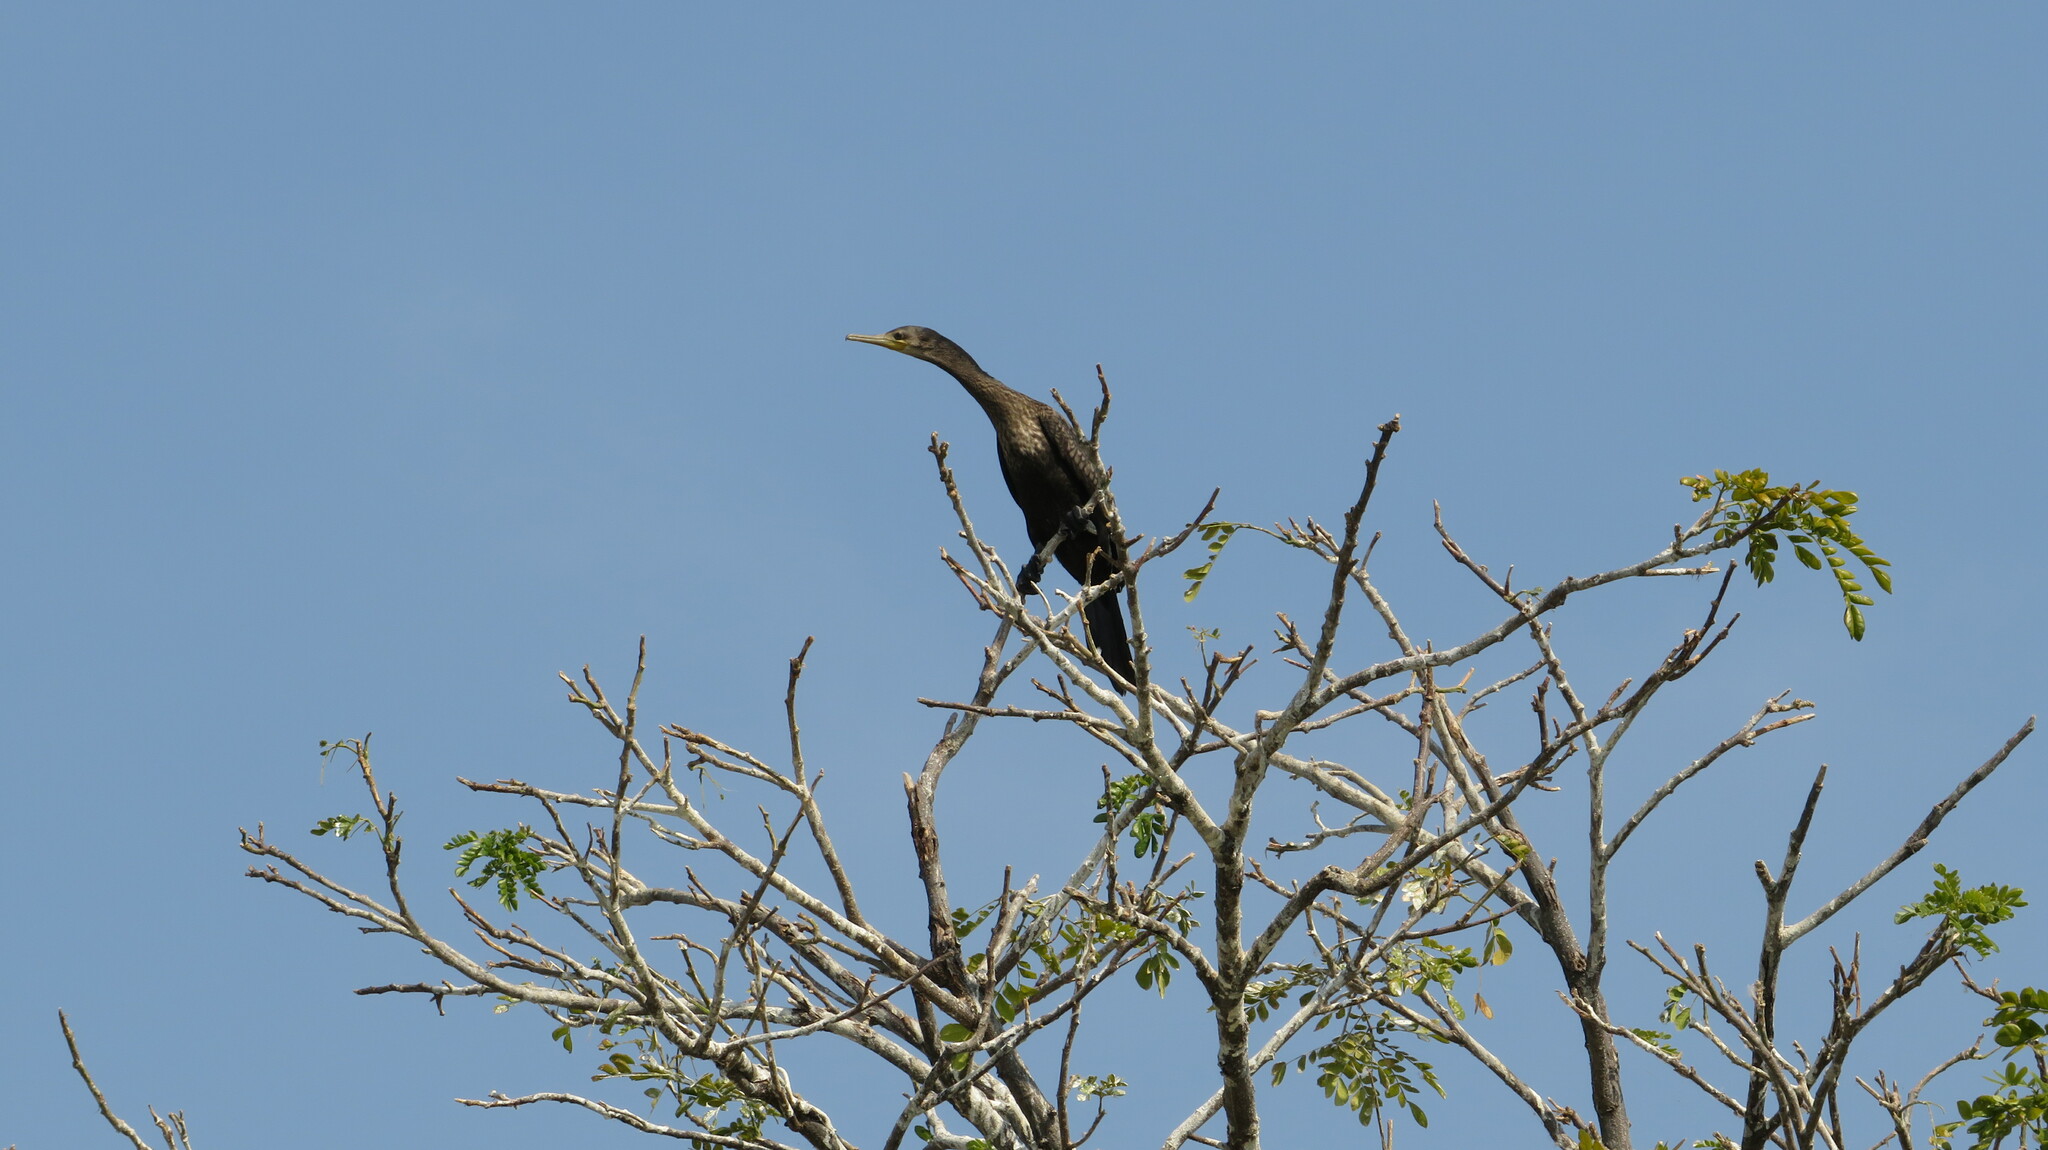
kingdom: Animalia
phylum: Chordata
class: Aves
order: Suliformes
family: Phalacrocoracidae
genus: Phalacrocorax
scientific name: Phalacrocorax fuscicollis
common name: Indian cormorant
